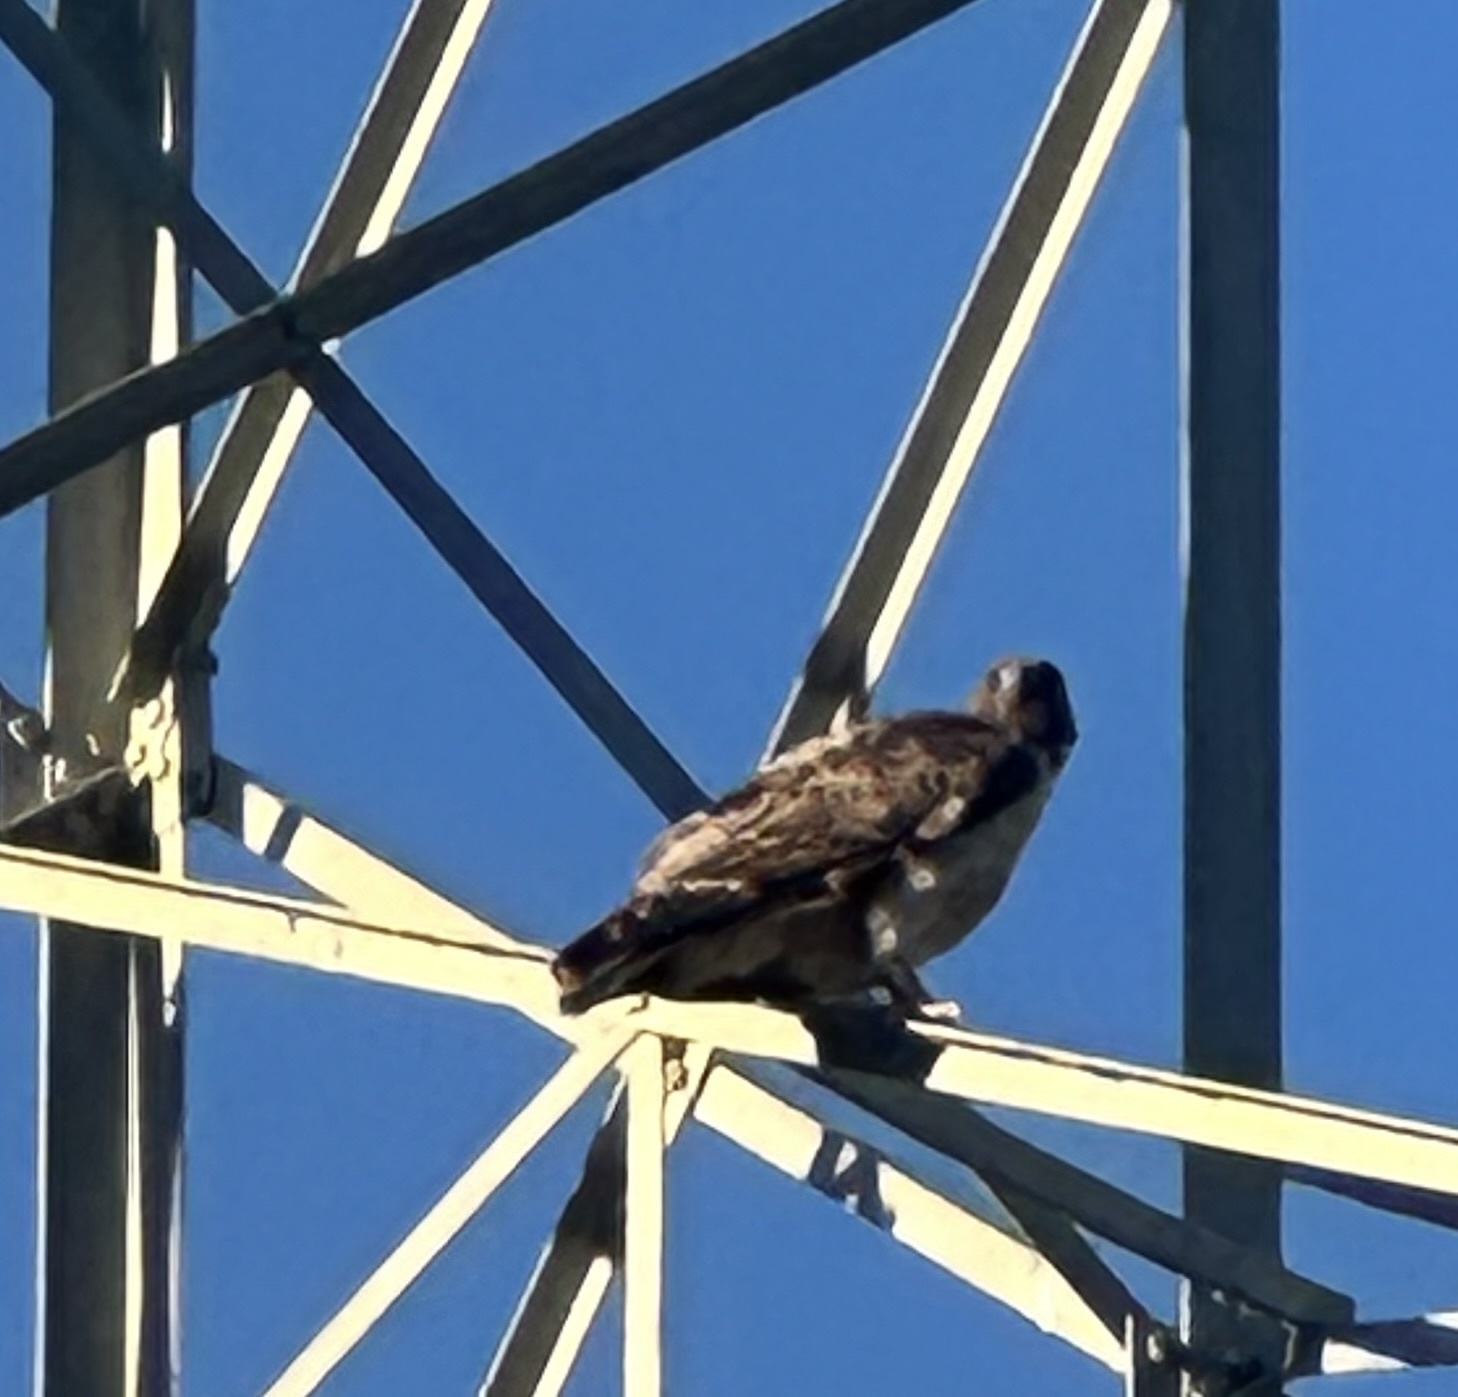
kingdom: Animalia
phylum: Chordata
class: Aves
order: Accipitriformes
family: Accipitridae
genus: Buteo
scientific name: Buteo jamaicensis
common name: Red-tailed hawk
